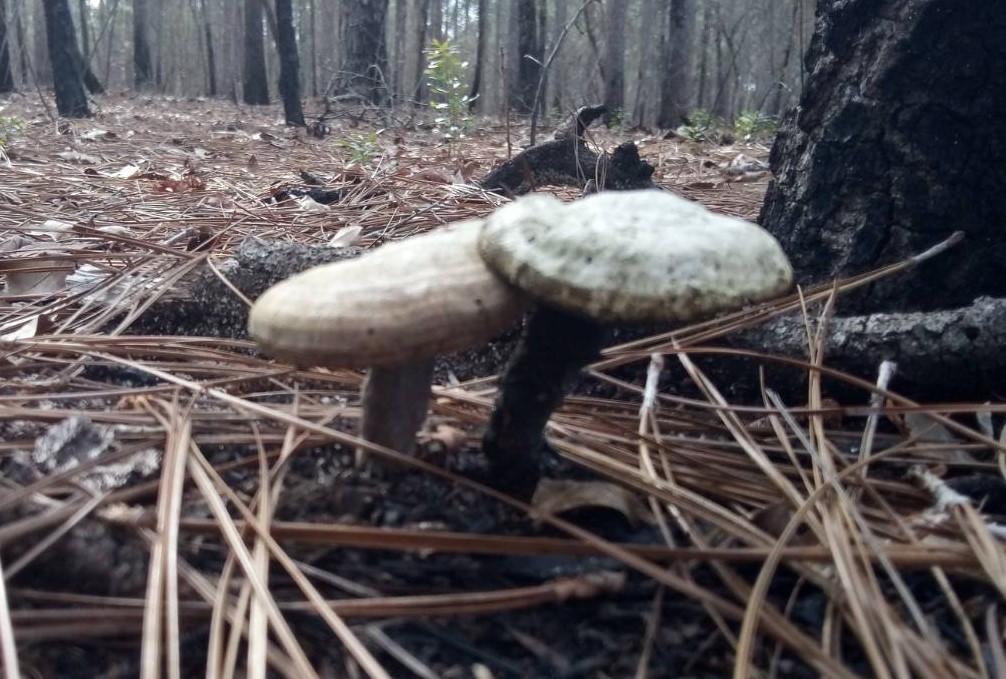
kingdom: Fungi
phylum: Basidiomycota
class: Agaricomycetes
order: Polyporales
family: Polyporaceae
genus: Ganoderma
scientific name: Ganoderma curtisii
